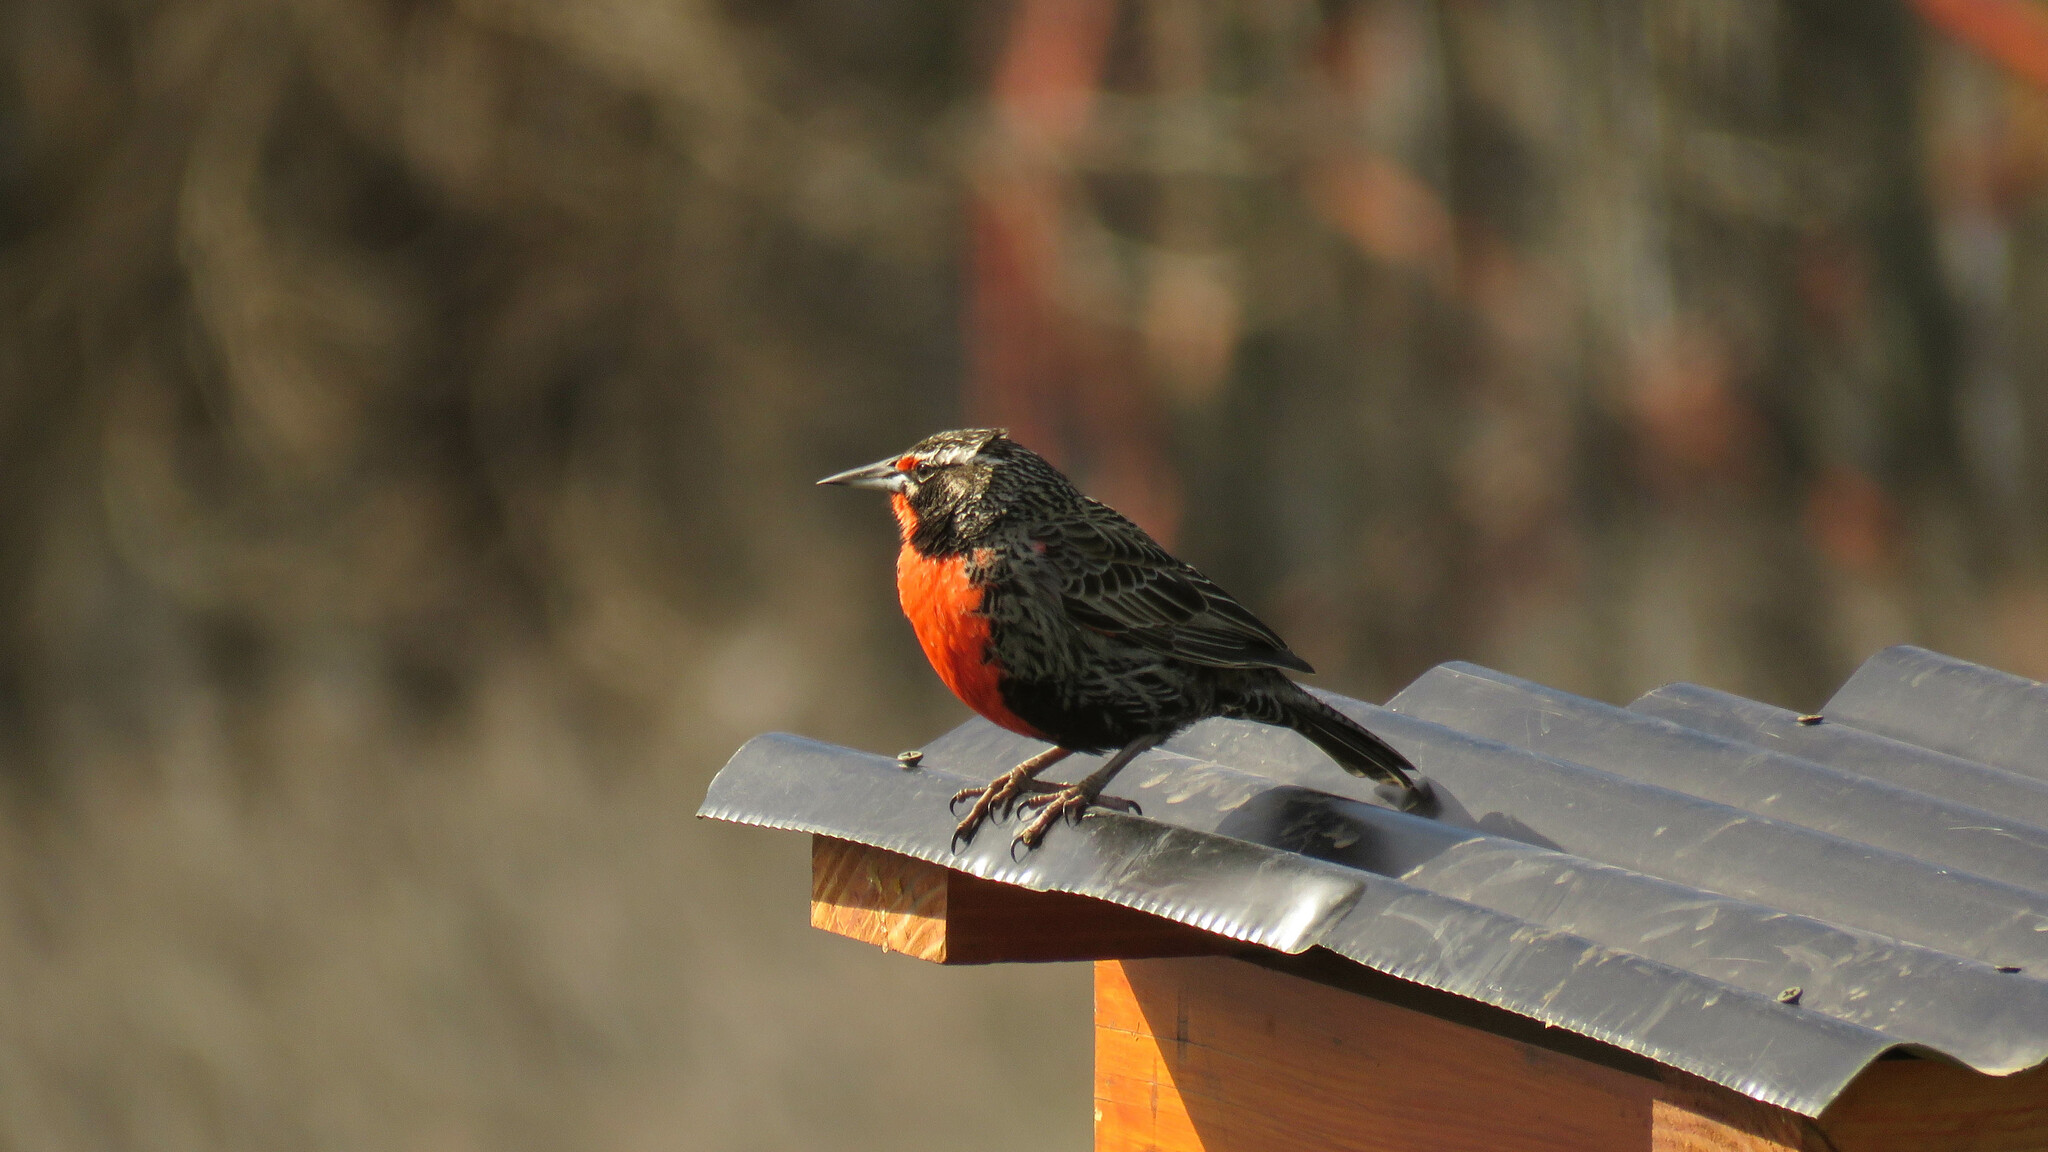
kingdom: Animalia
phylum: Chordata
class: Aves
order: Passeriformes
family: Icteridae
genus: Sturnella
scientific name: Sturnella loyca
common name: Long-tailed meadowlark
